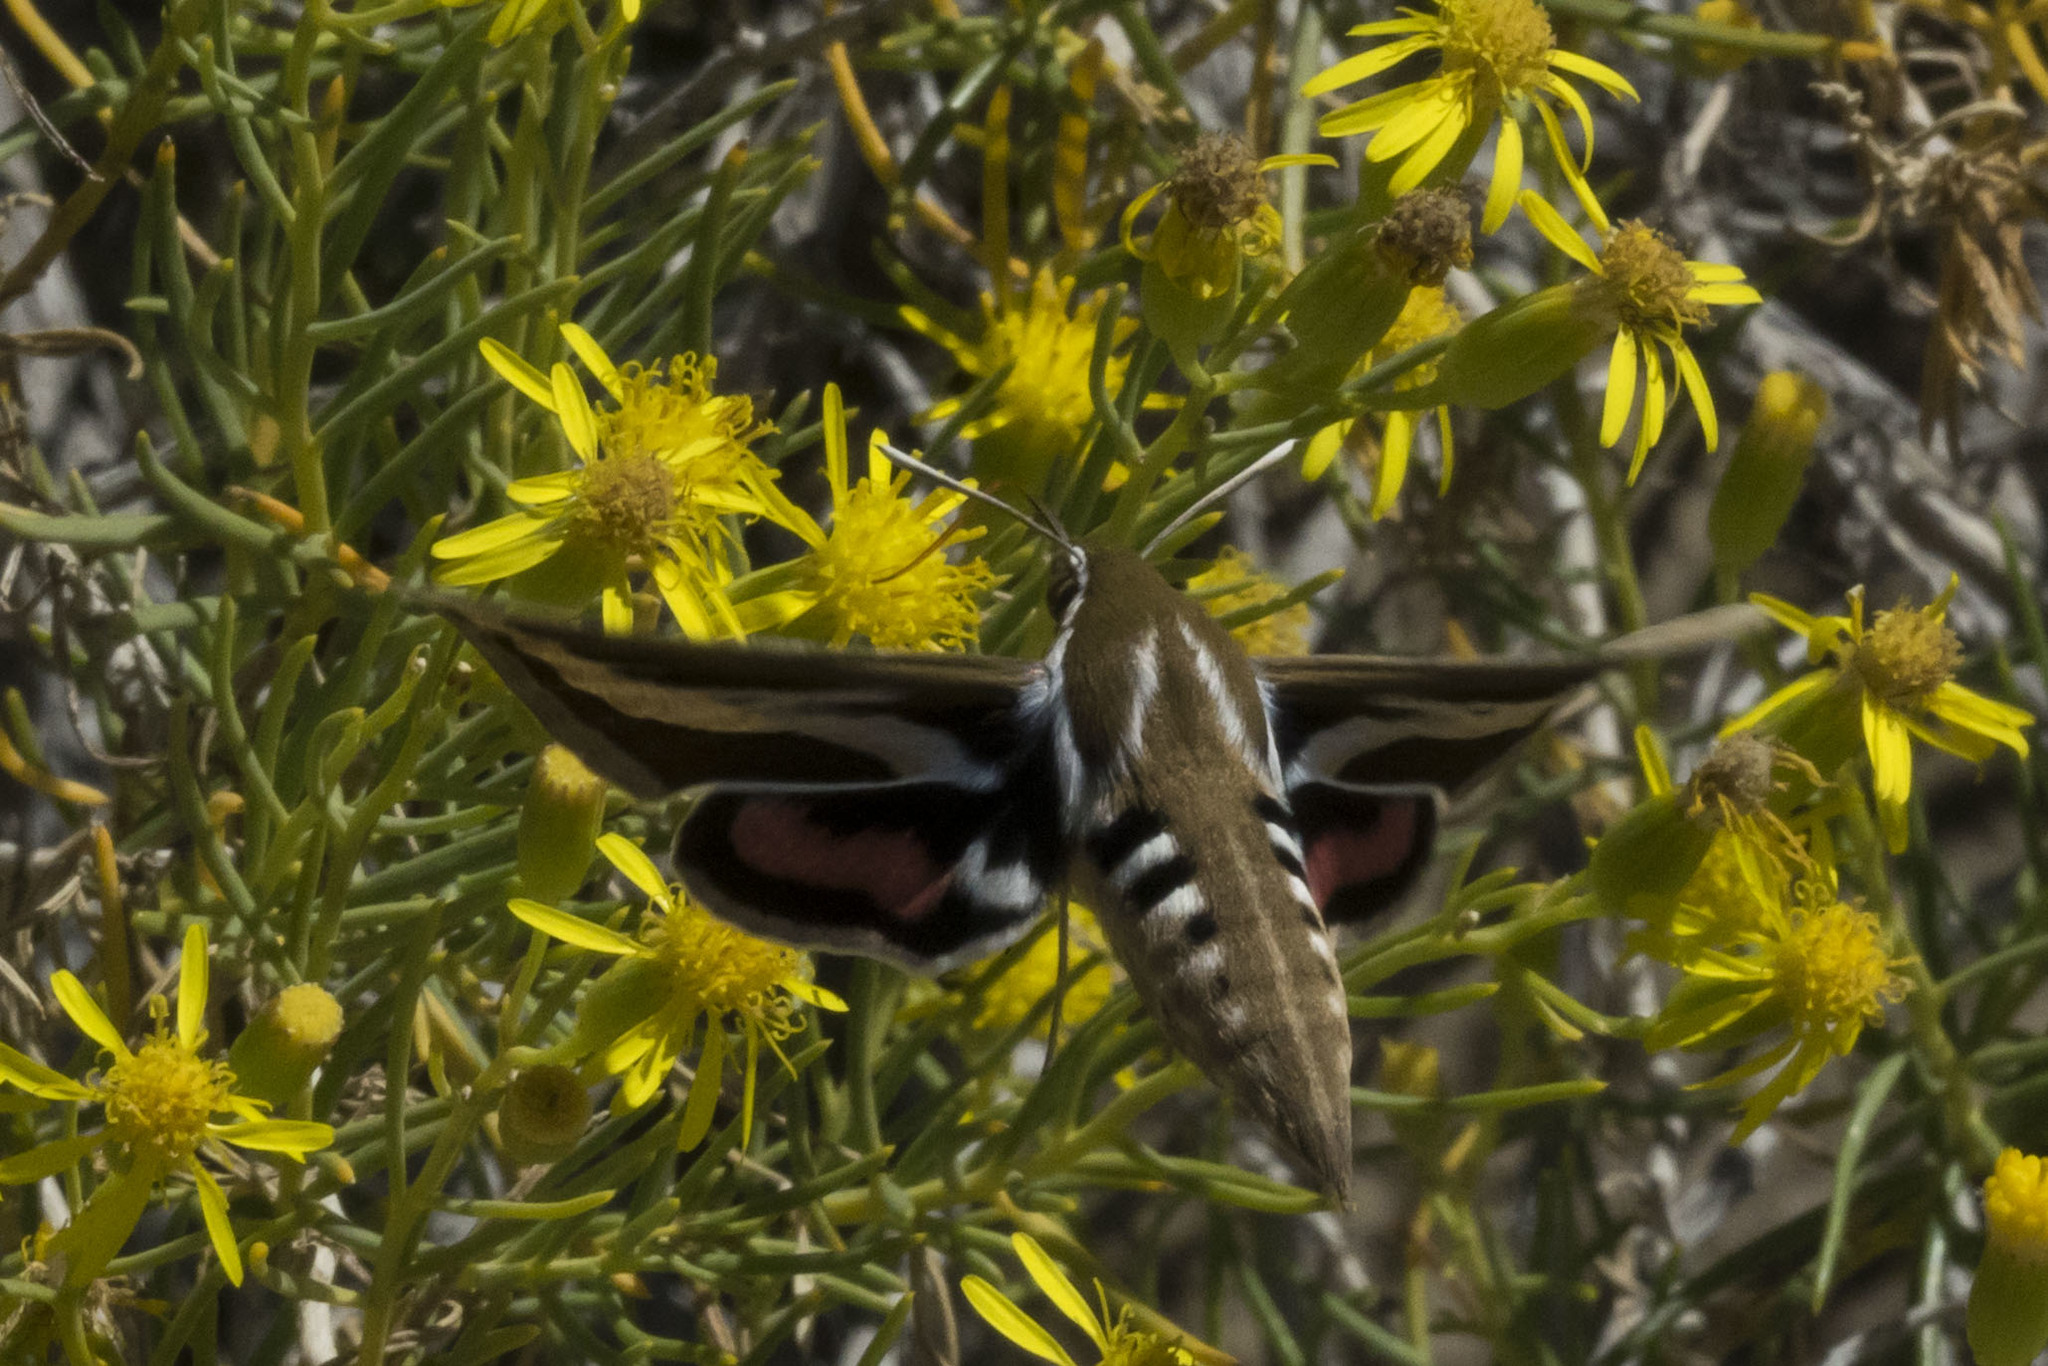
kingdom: Animalia
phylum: Arthropoda
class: Insecta
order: Lepidoptera
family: Sphingidae
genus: Hyles
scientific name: Hyles euphorbiarum
